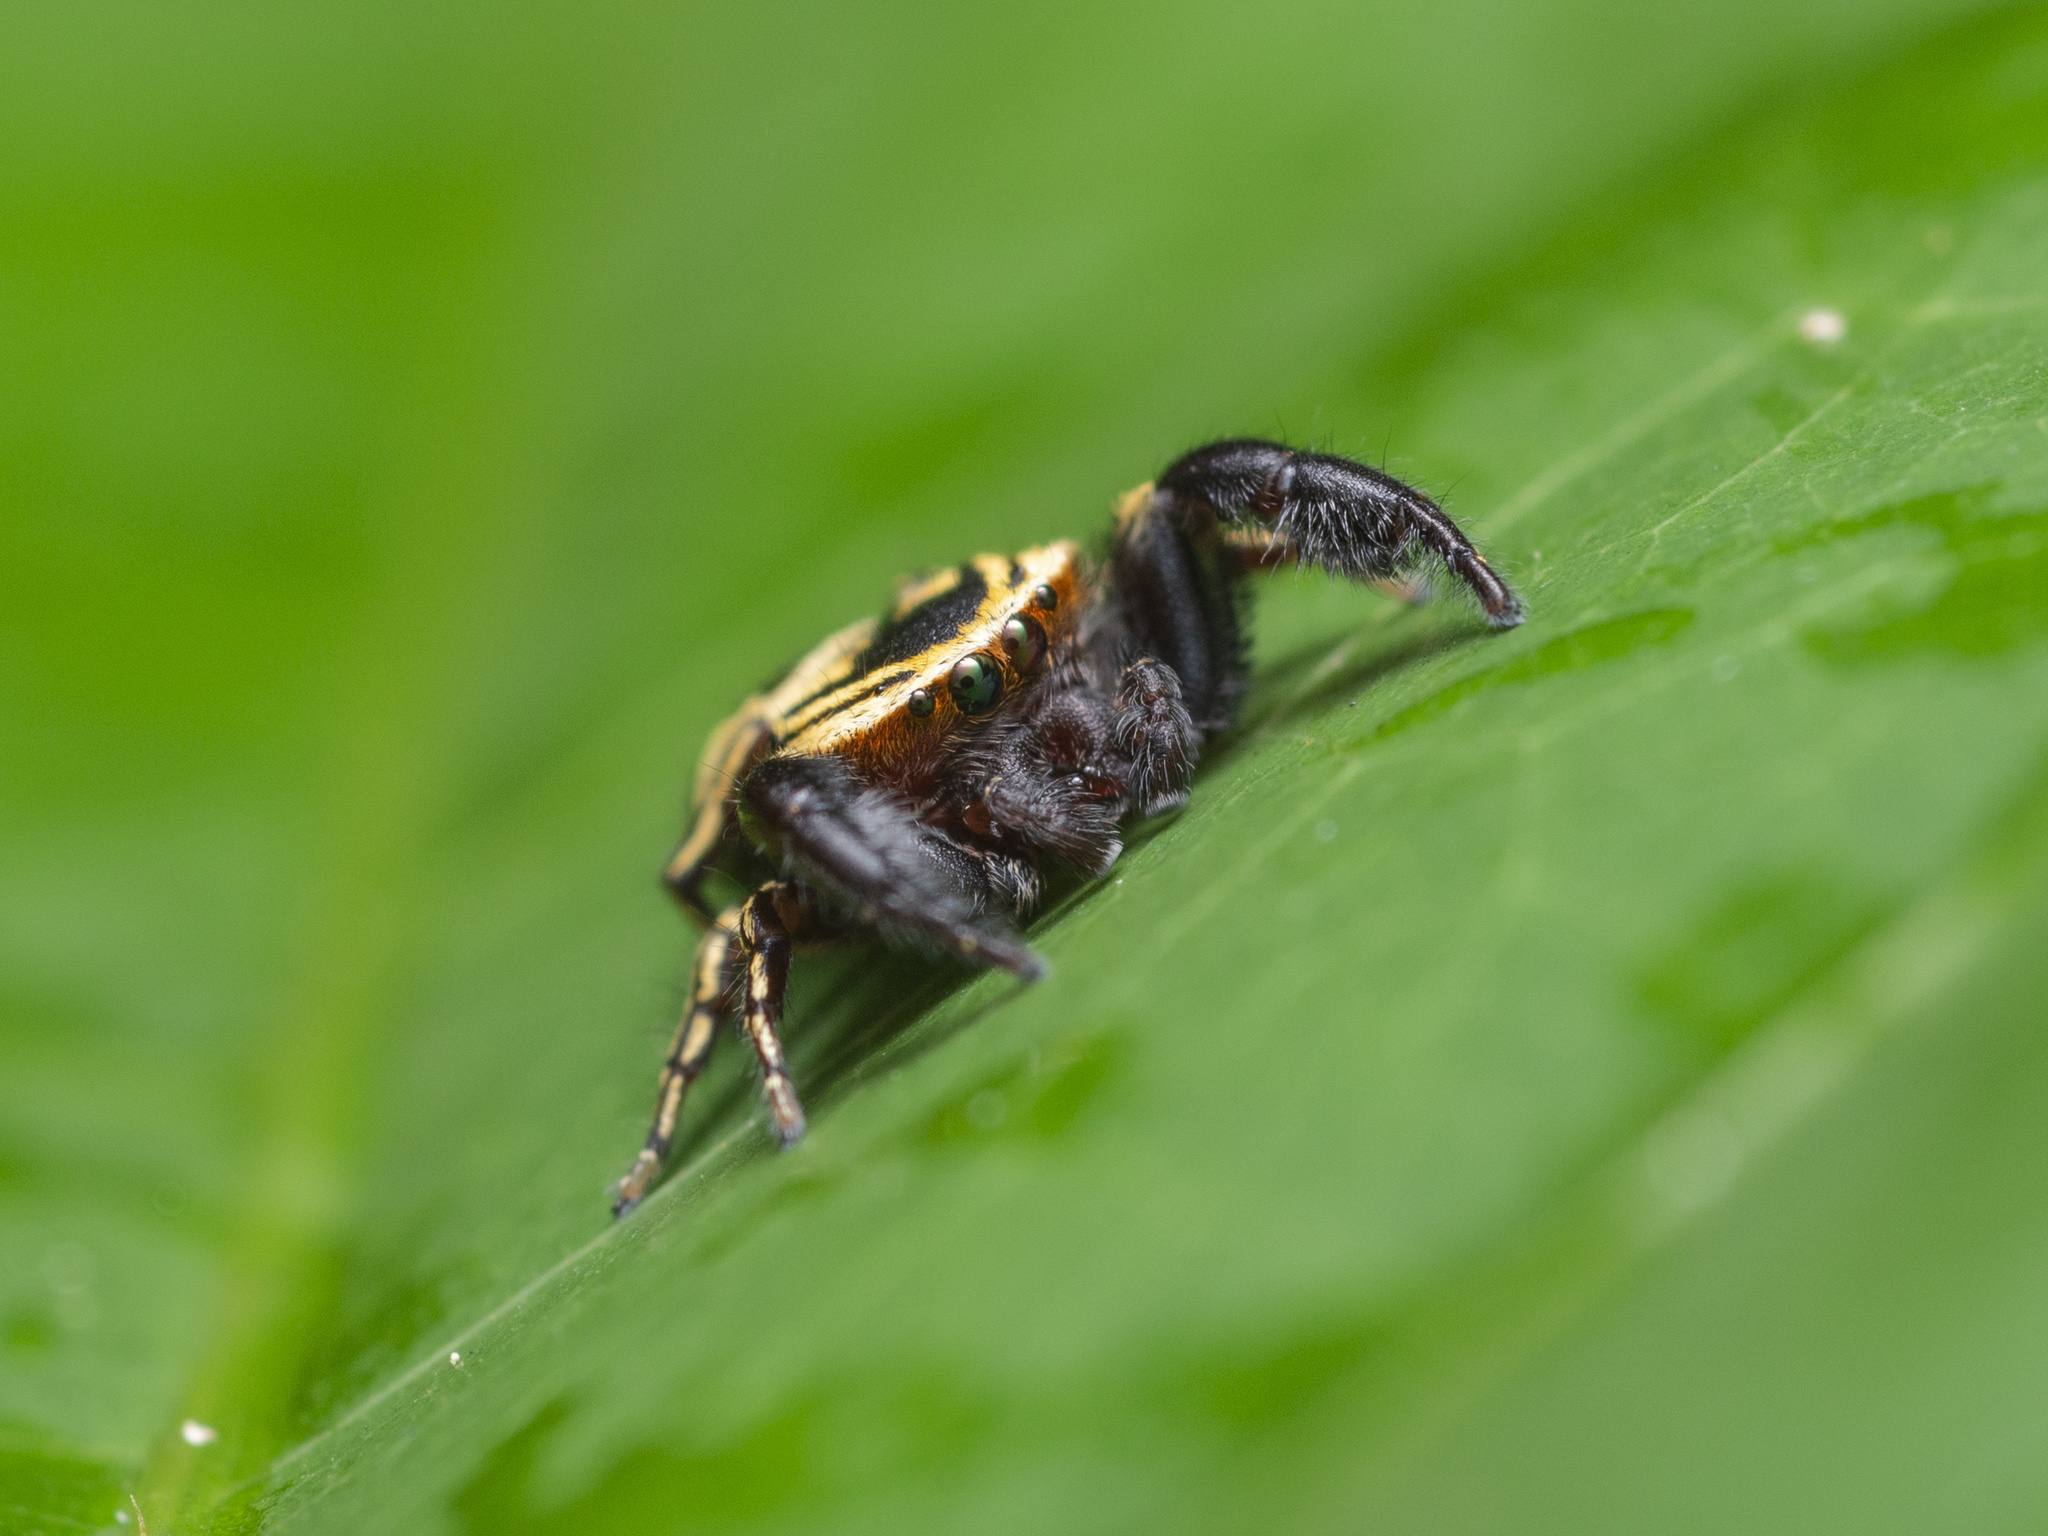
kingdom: Animalia
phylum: Arthropoda
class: Arachnida
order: Araneae
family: Salticidae
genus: Rhene
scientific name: Rhene flavicomans
